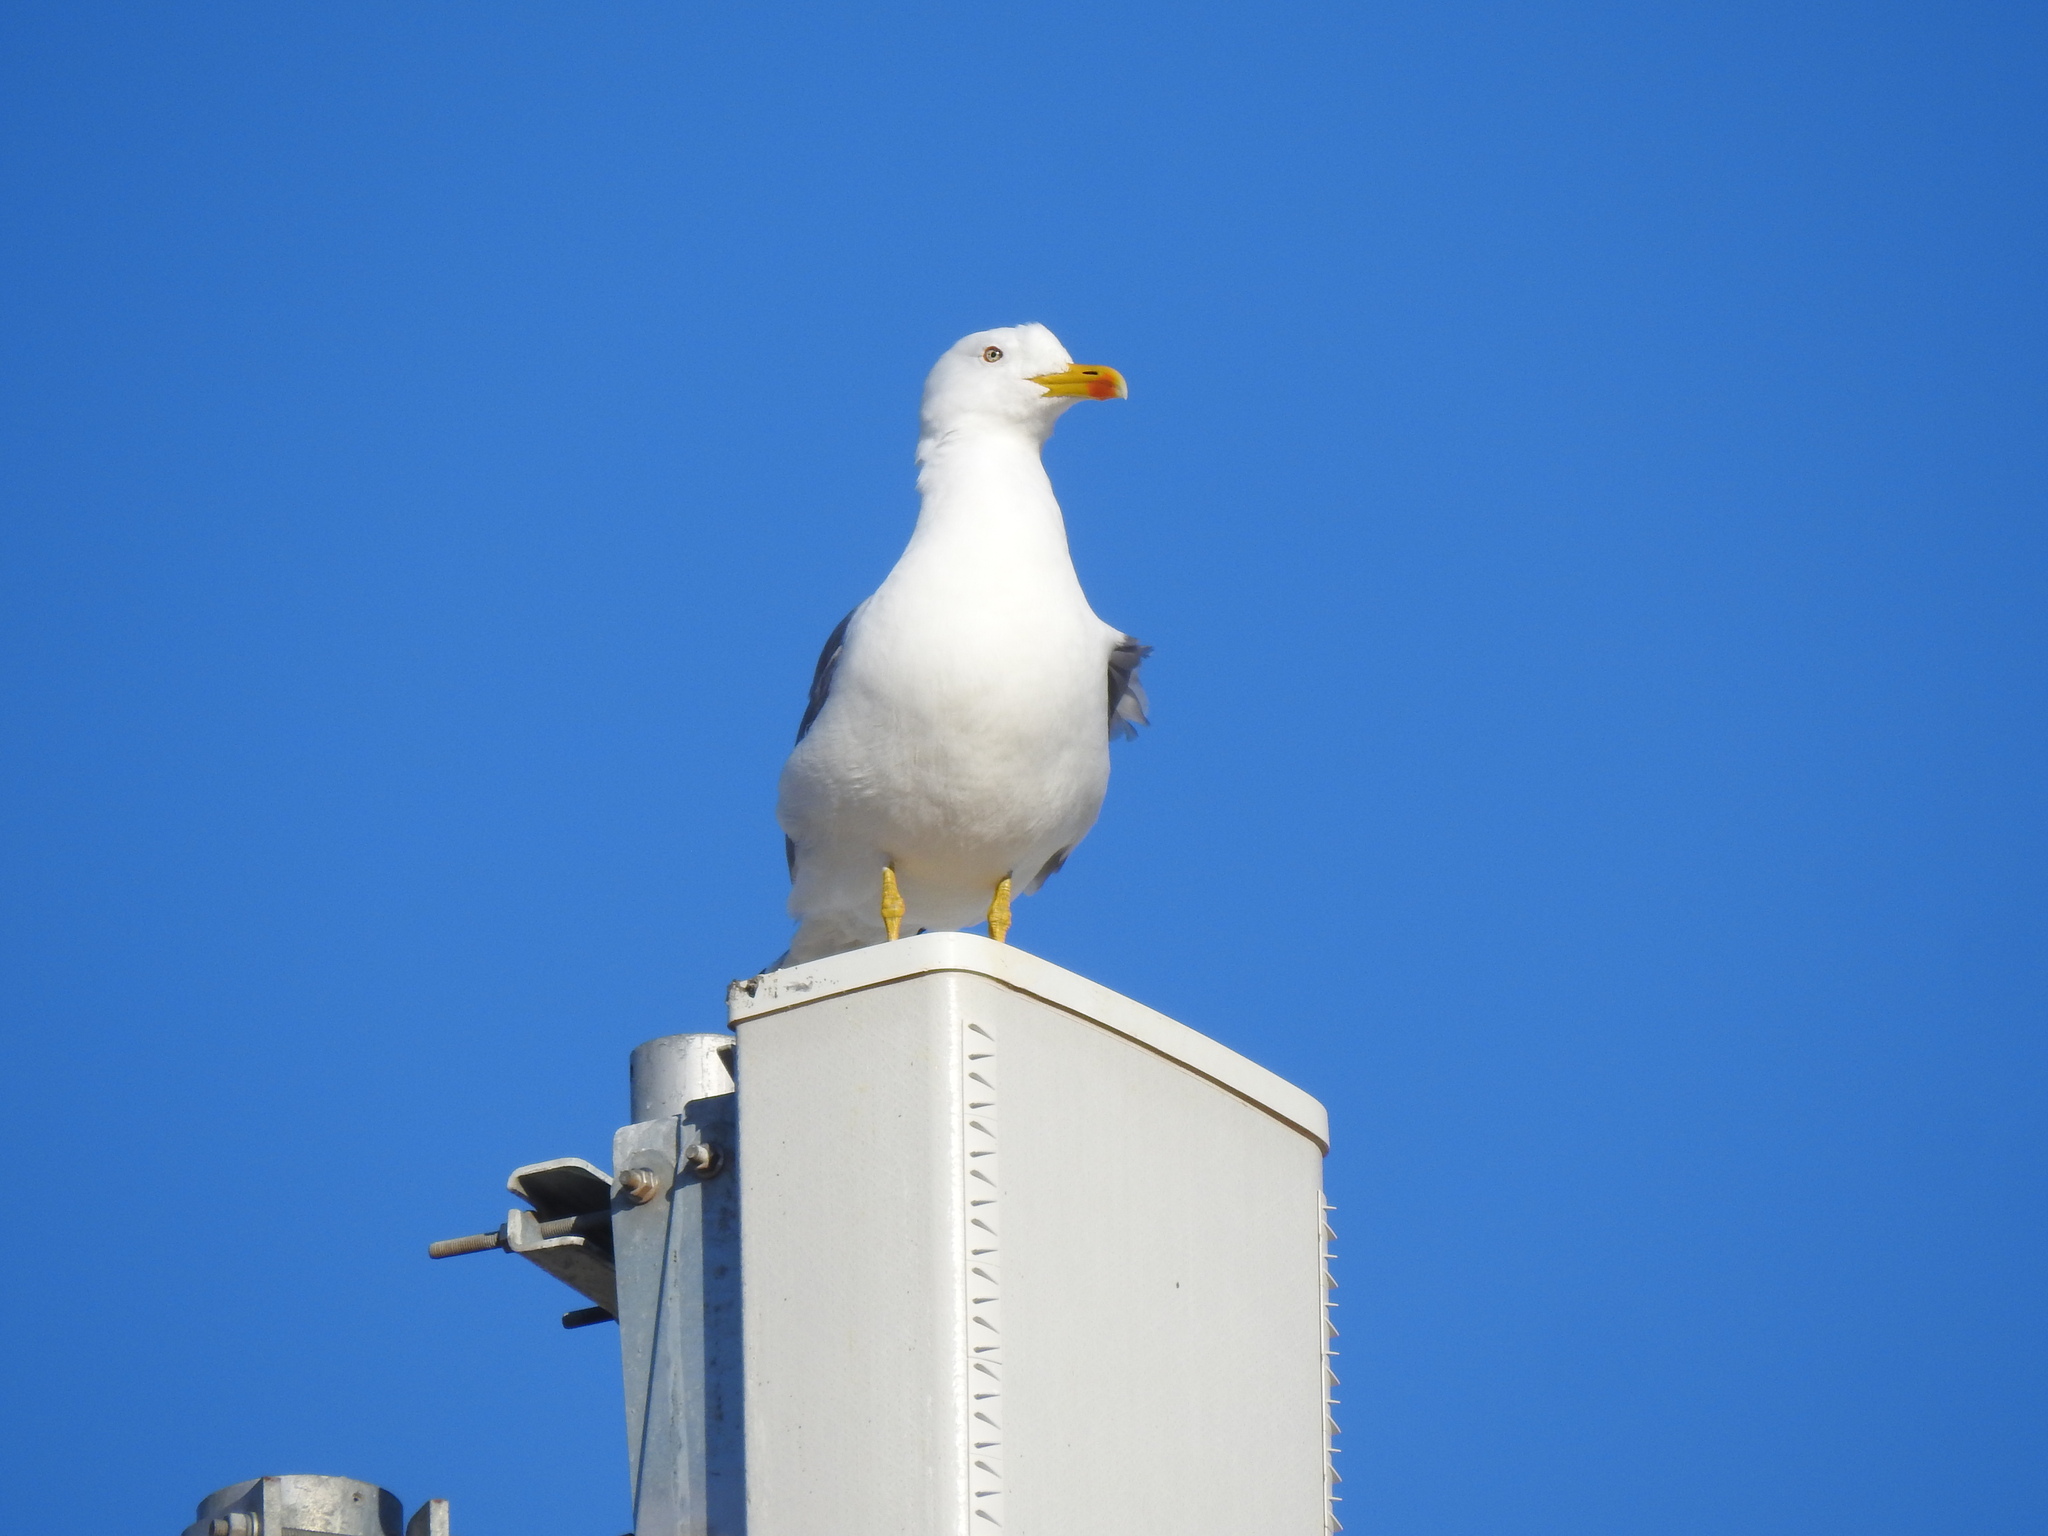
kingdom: Animalia
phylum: Chordata
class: Aves
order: Charadriiformes
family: Laridae
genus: Larus
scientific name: Larus michahellis
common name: Yellow-legged gull
